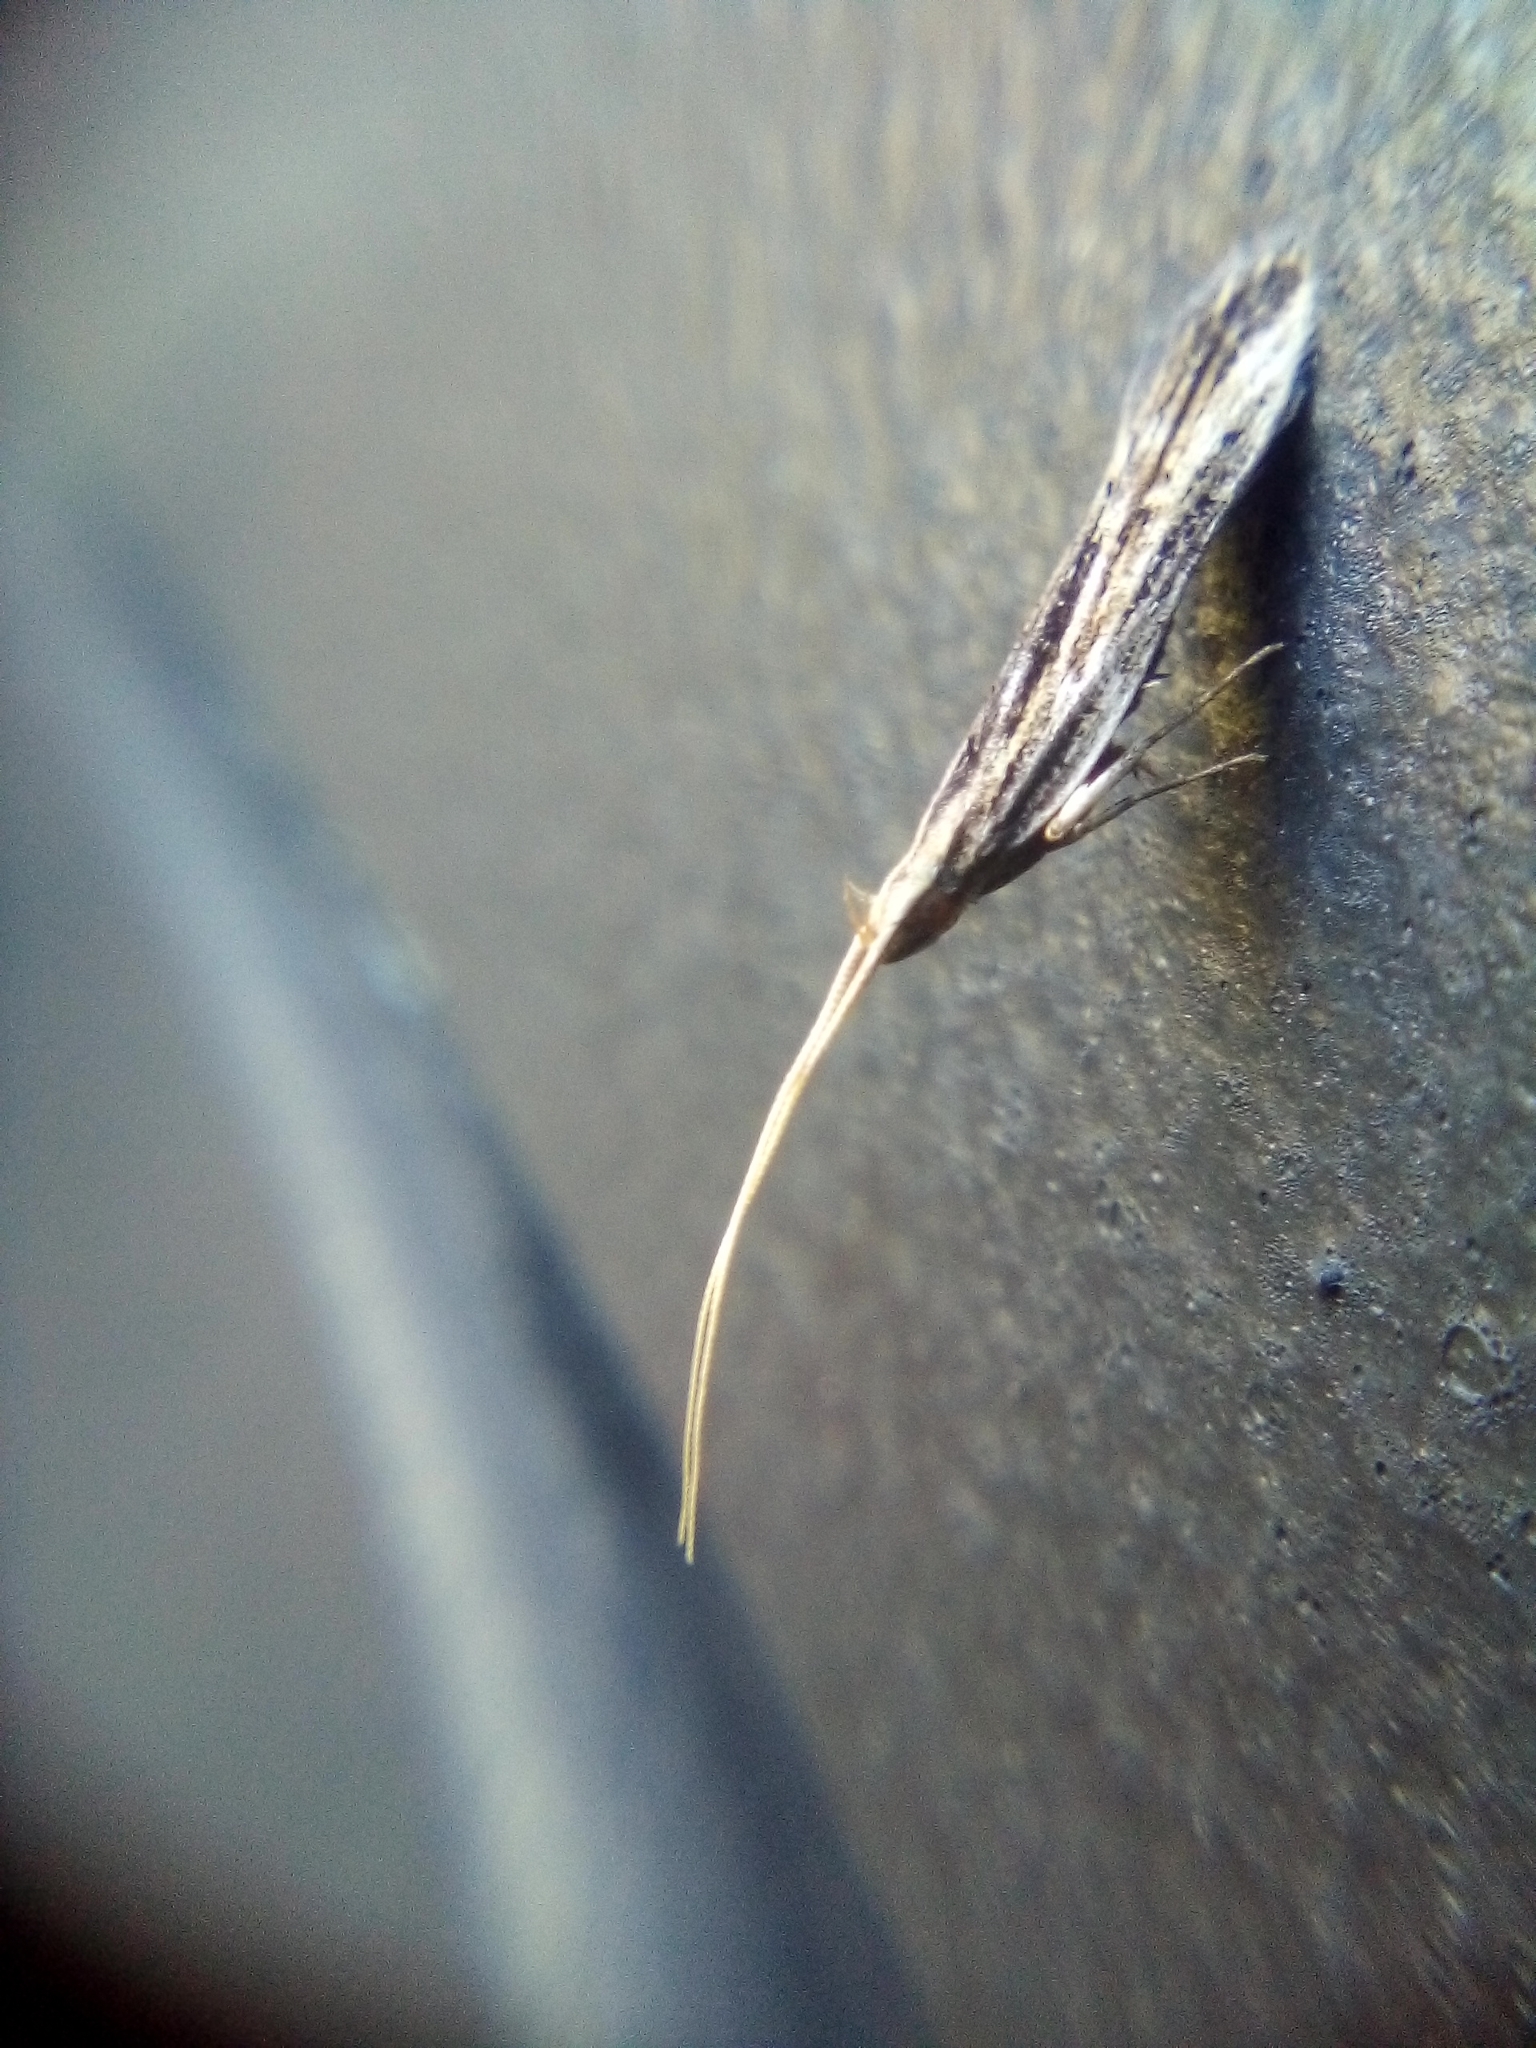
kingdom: Animalia
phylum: Arthropoda
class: Insecta
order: Lepidoptera
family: Lecithoceridae
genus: Sarisophora
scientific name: Sarisophora leucoscia
